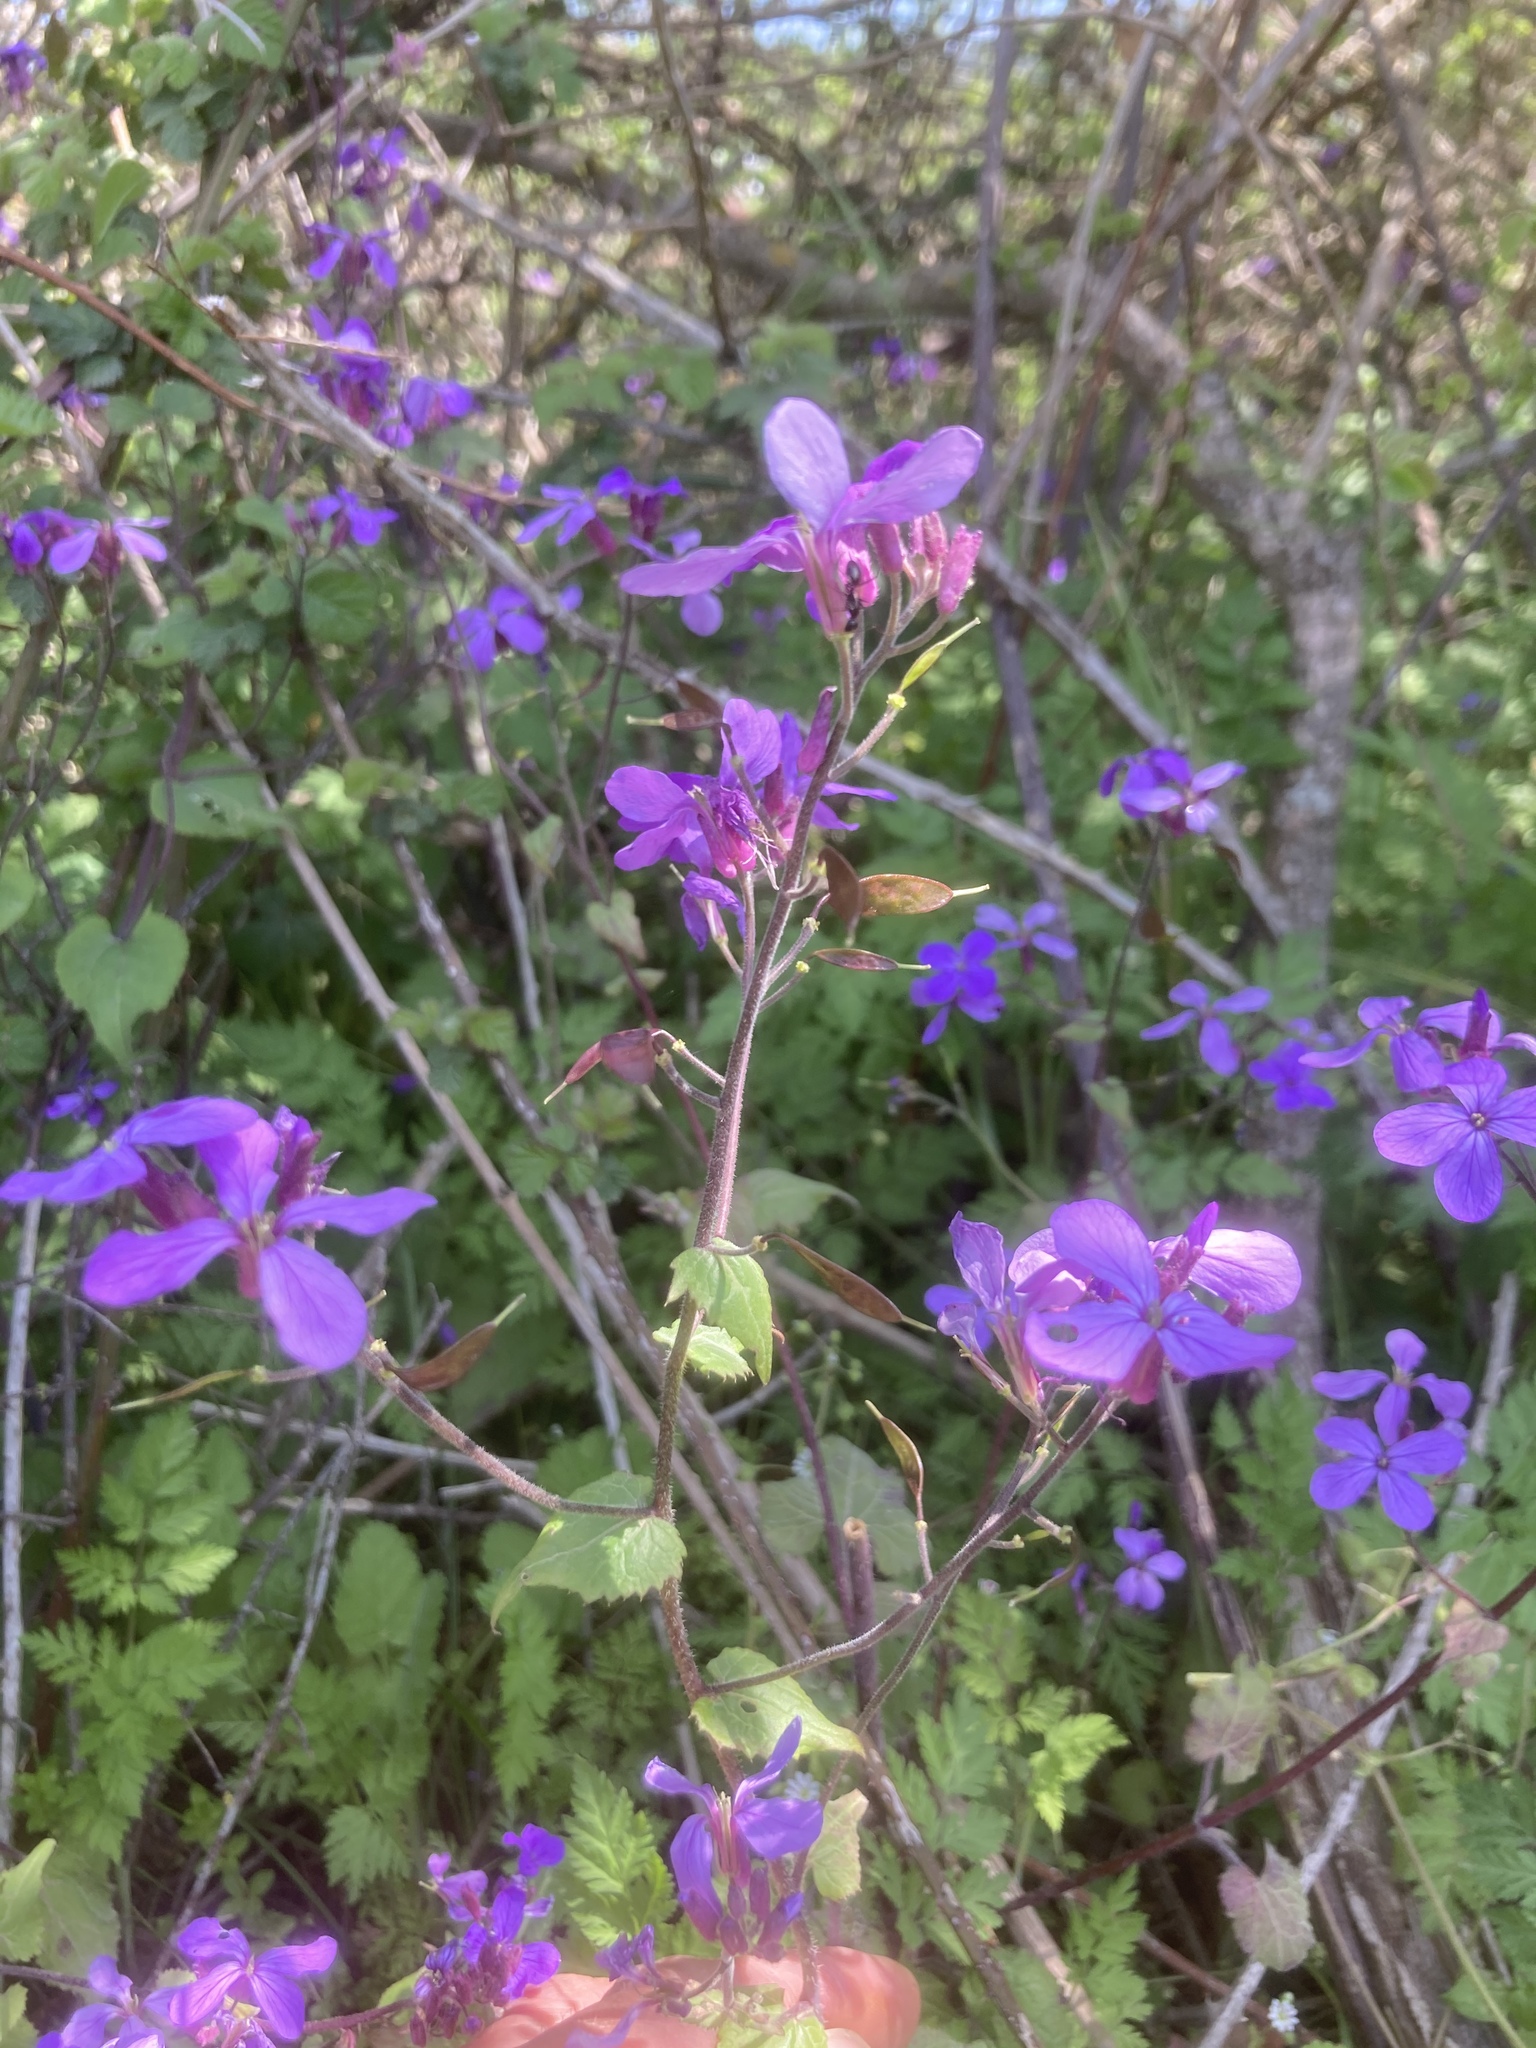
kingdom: Plantae
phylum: Tracheophyta
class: Magnoliopsida
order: Brassicales
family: Brassicaceae
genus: Lunaria
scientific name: Lunaria annua
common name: Honesty
